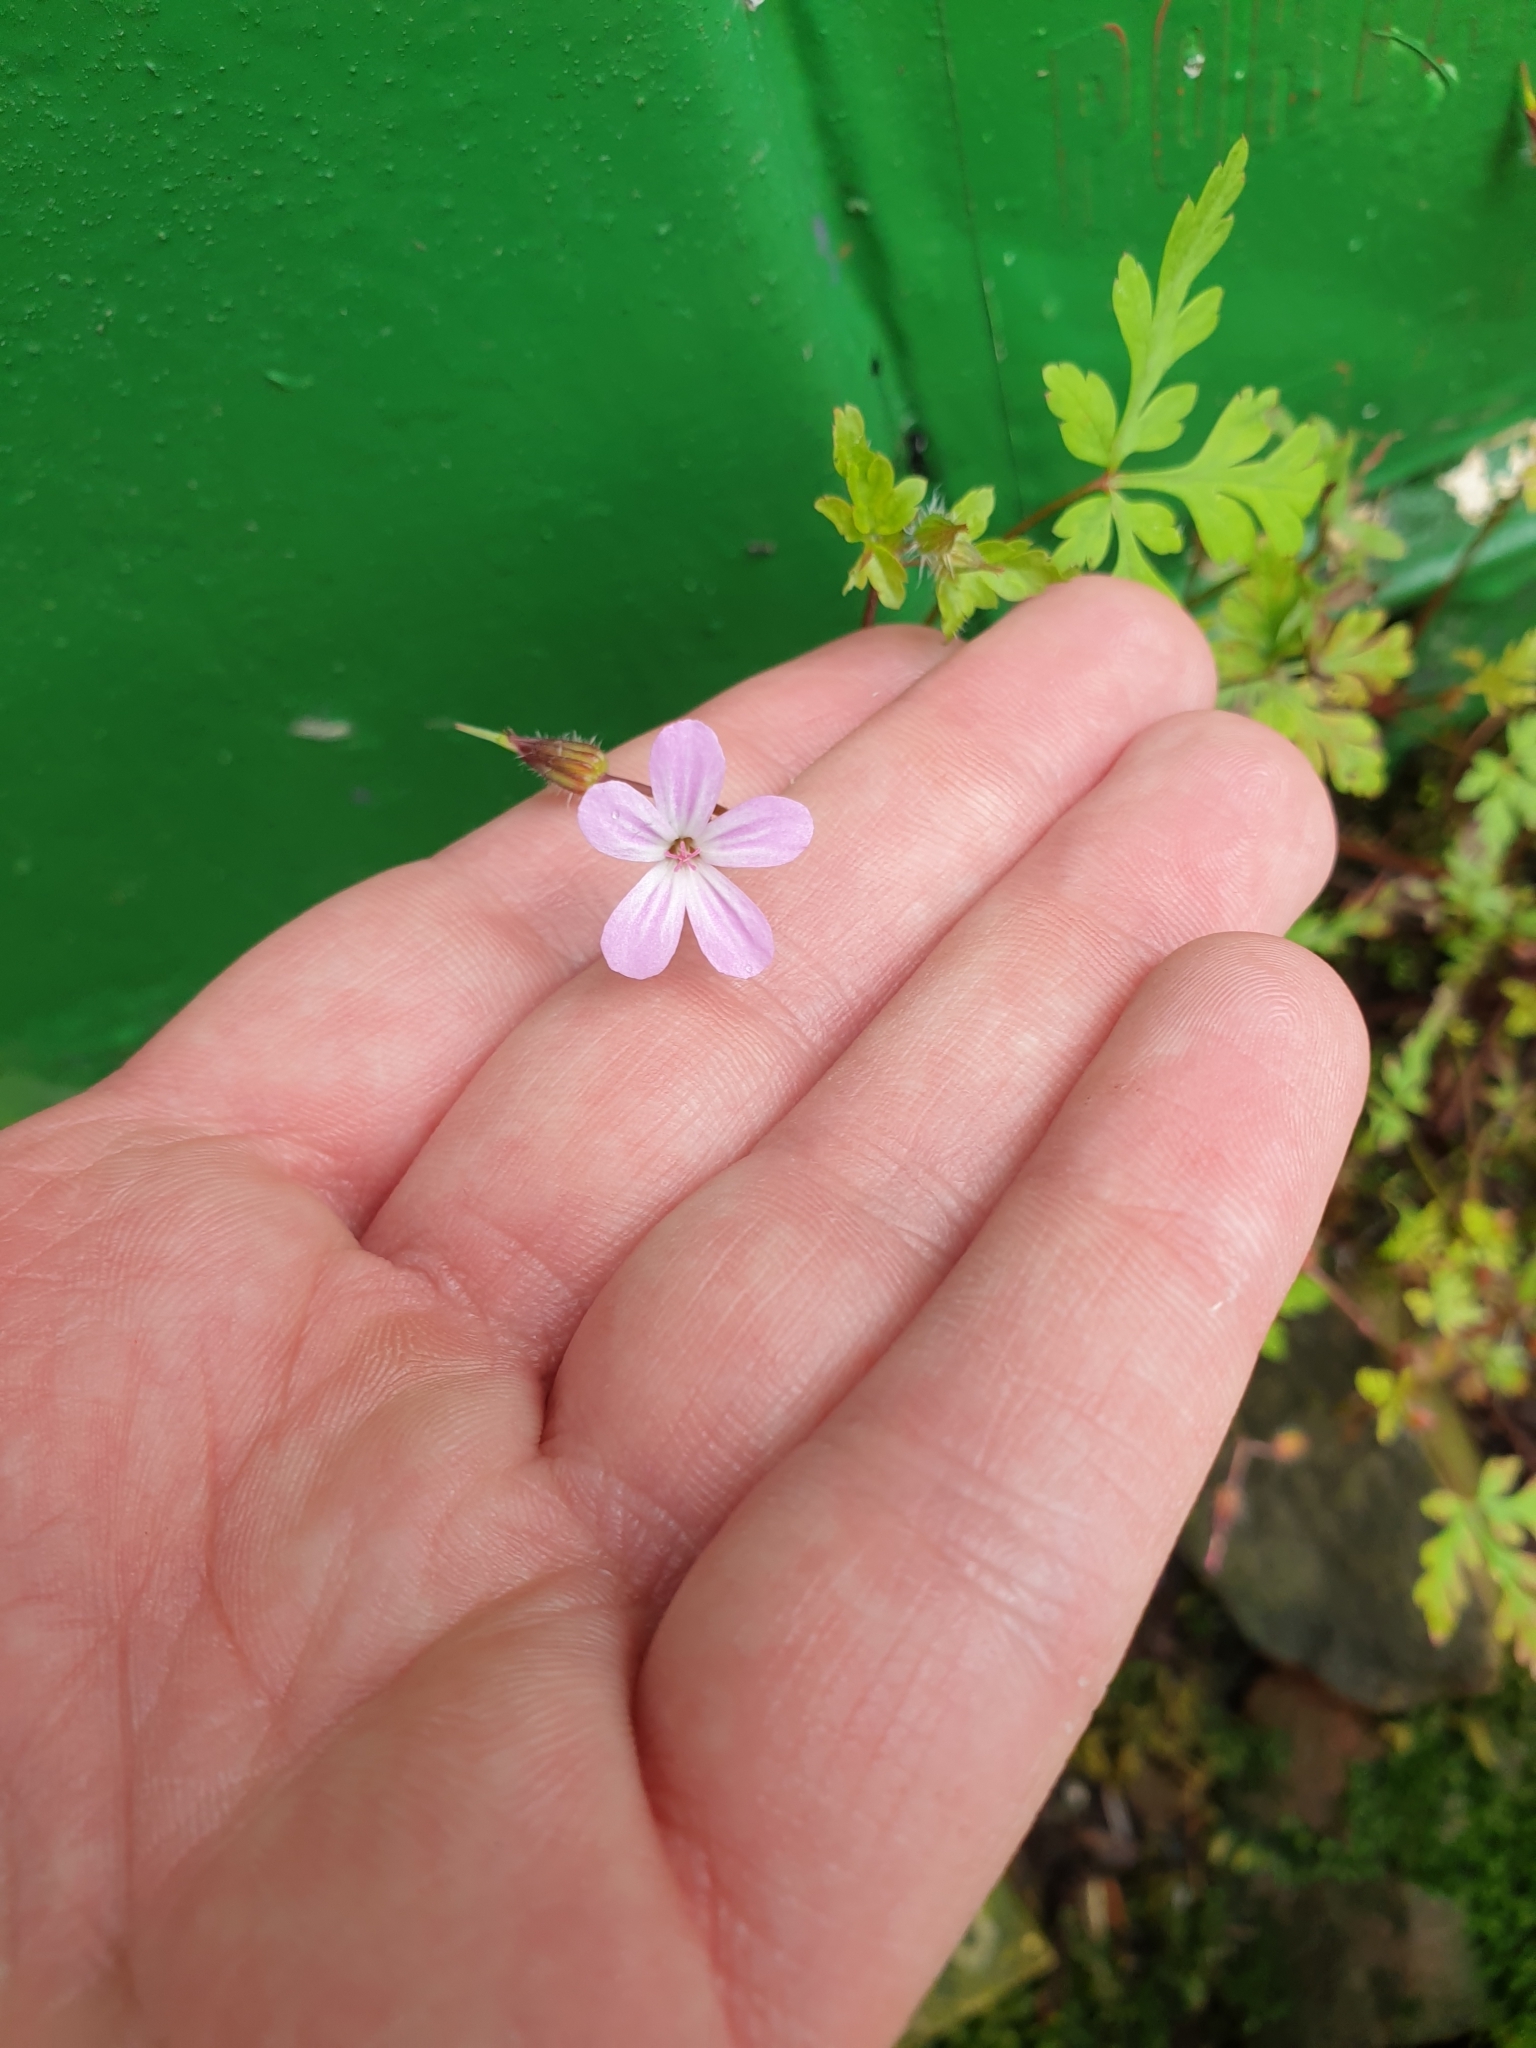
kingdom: Plantae
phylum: Tracheophyta
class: Magnoliopsida
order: Geraniales
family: Geraniaceae
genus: Geranium
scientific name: Geranium robertianum
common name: Herb-robert
